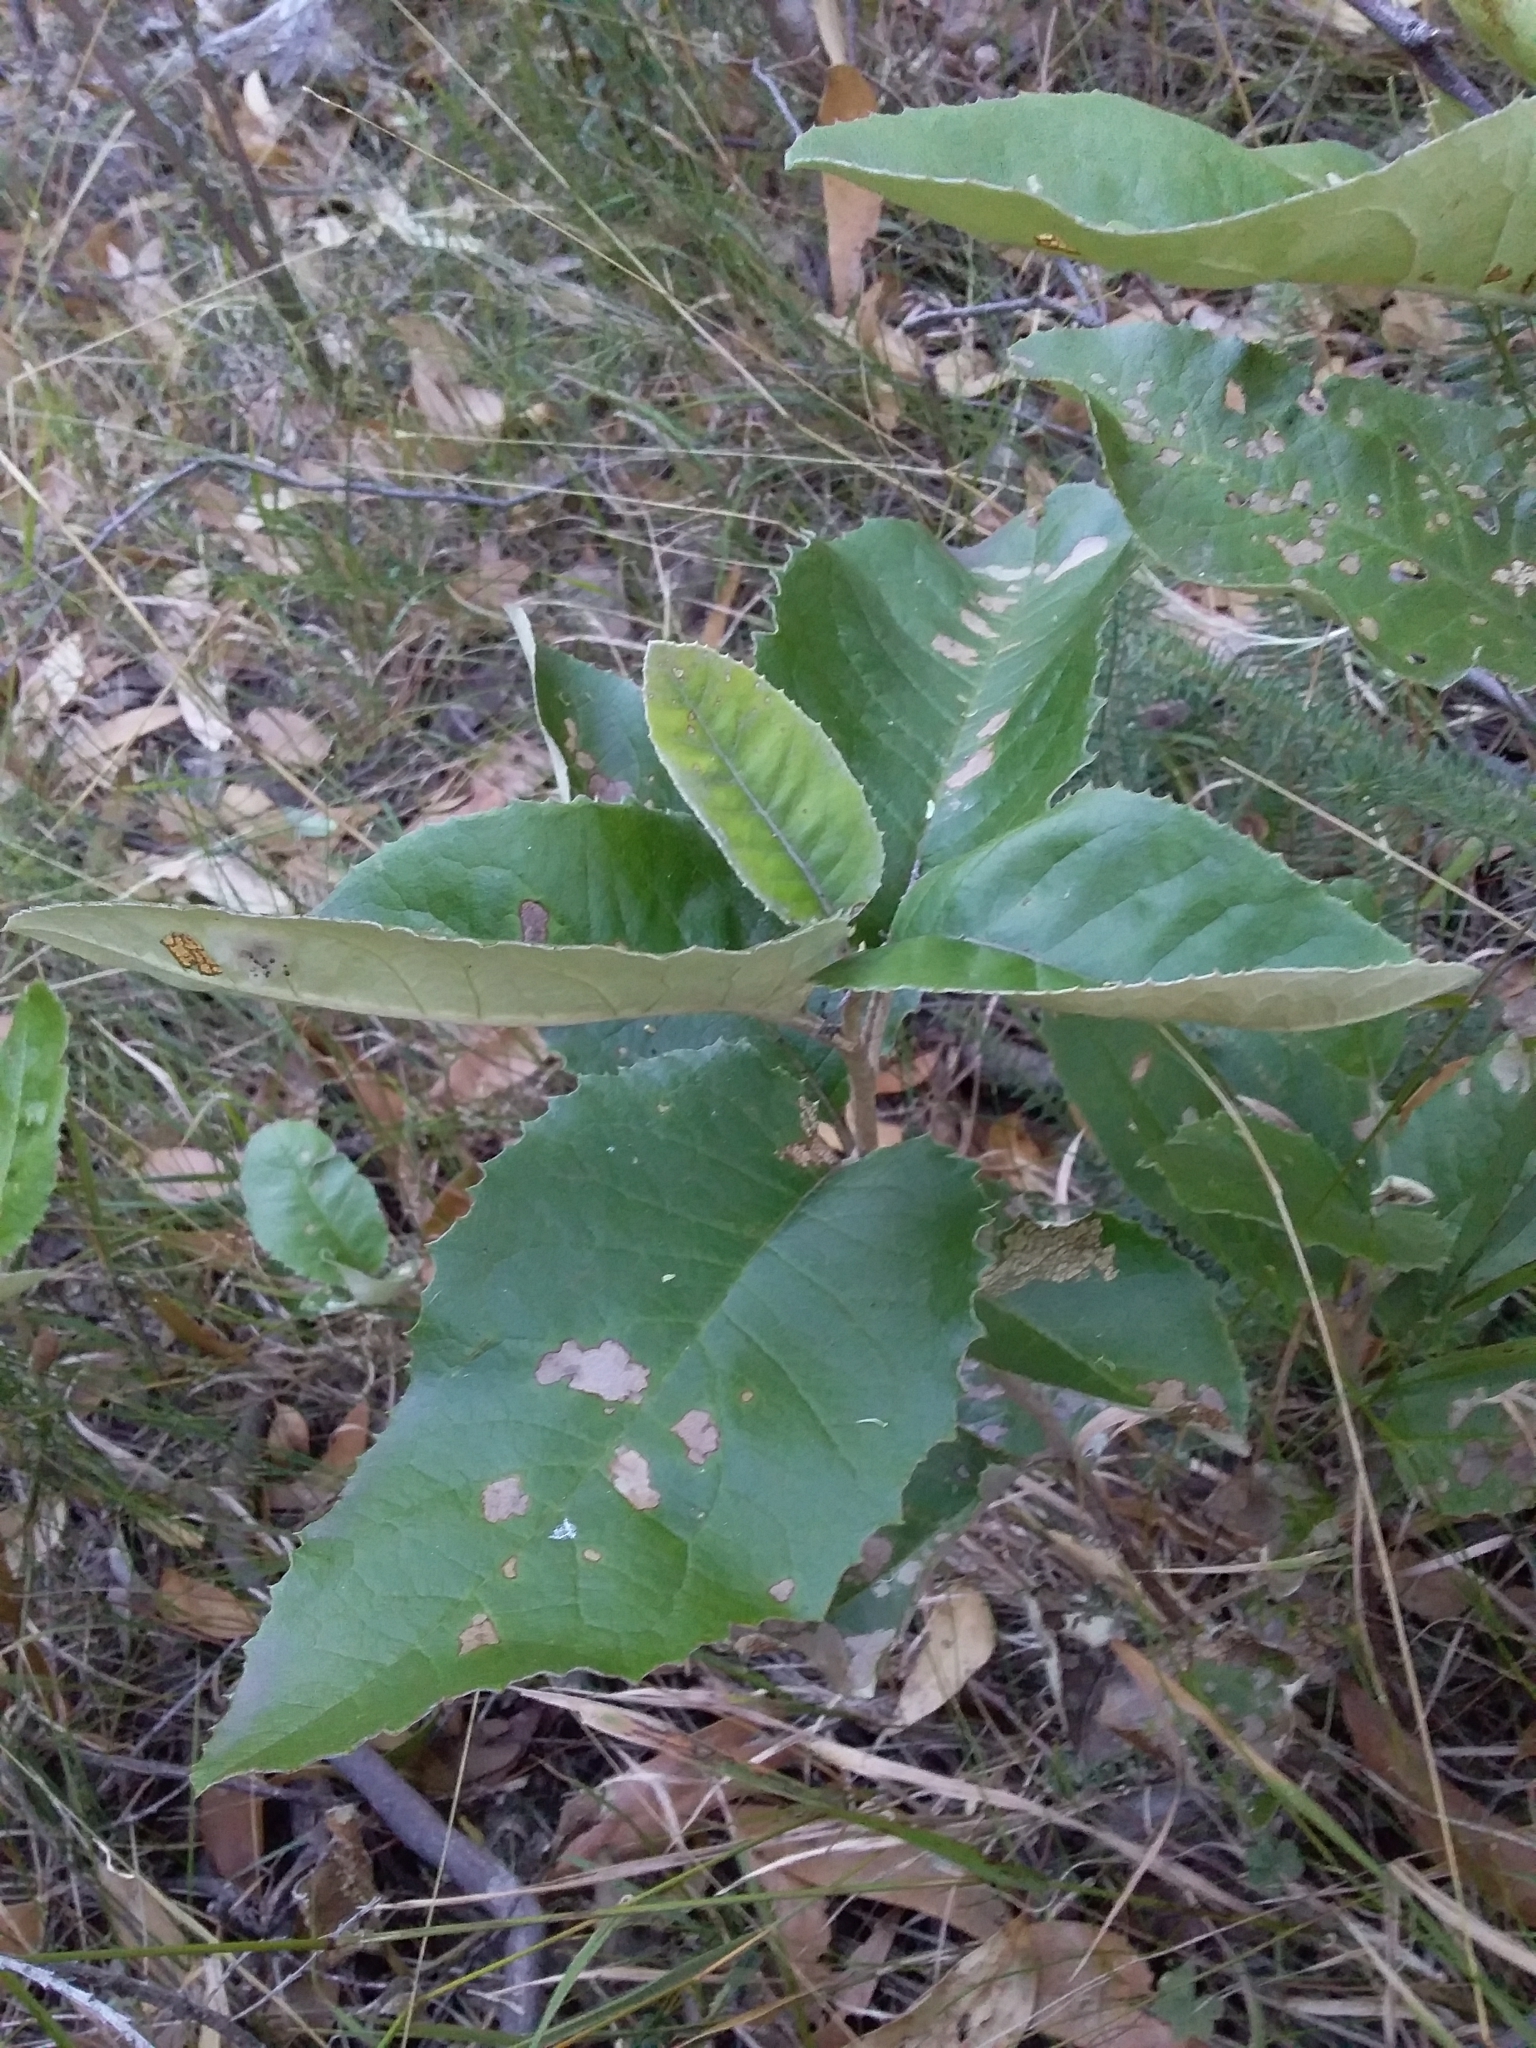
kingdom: Plantae
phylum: Tracheophyta
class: Magnoliopsida
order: Asterales
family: Asteraceae
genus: Olearia
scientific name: Olearia grandiflora
